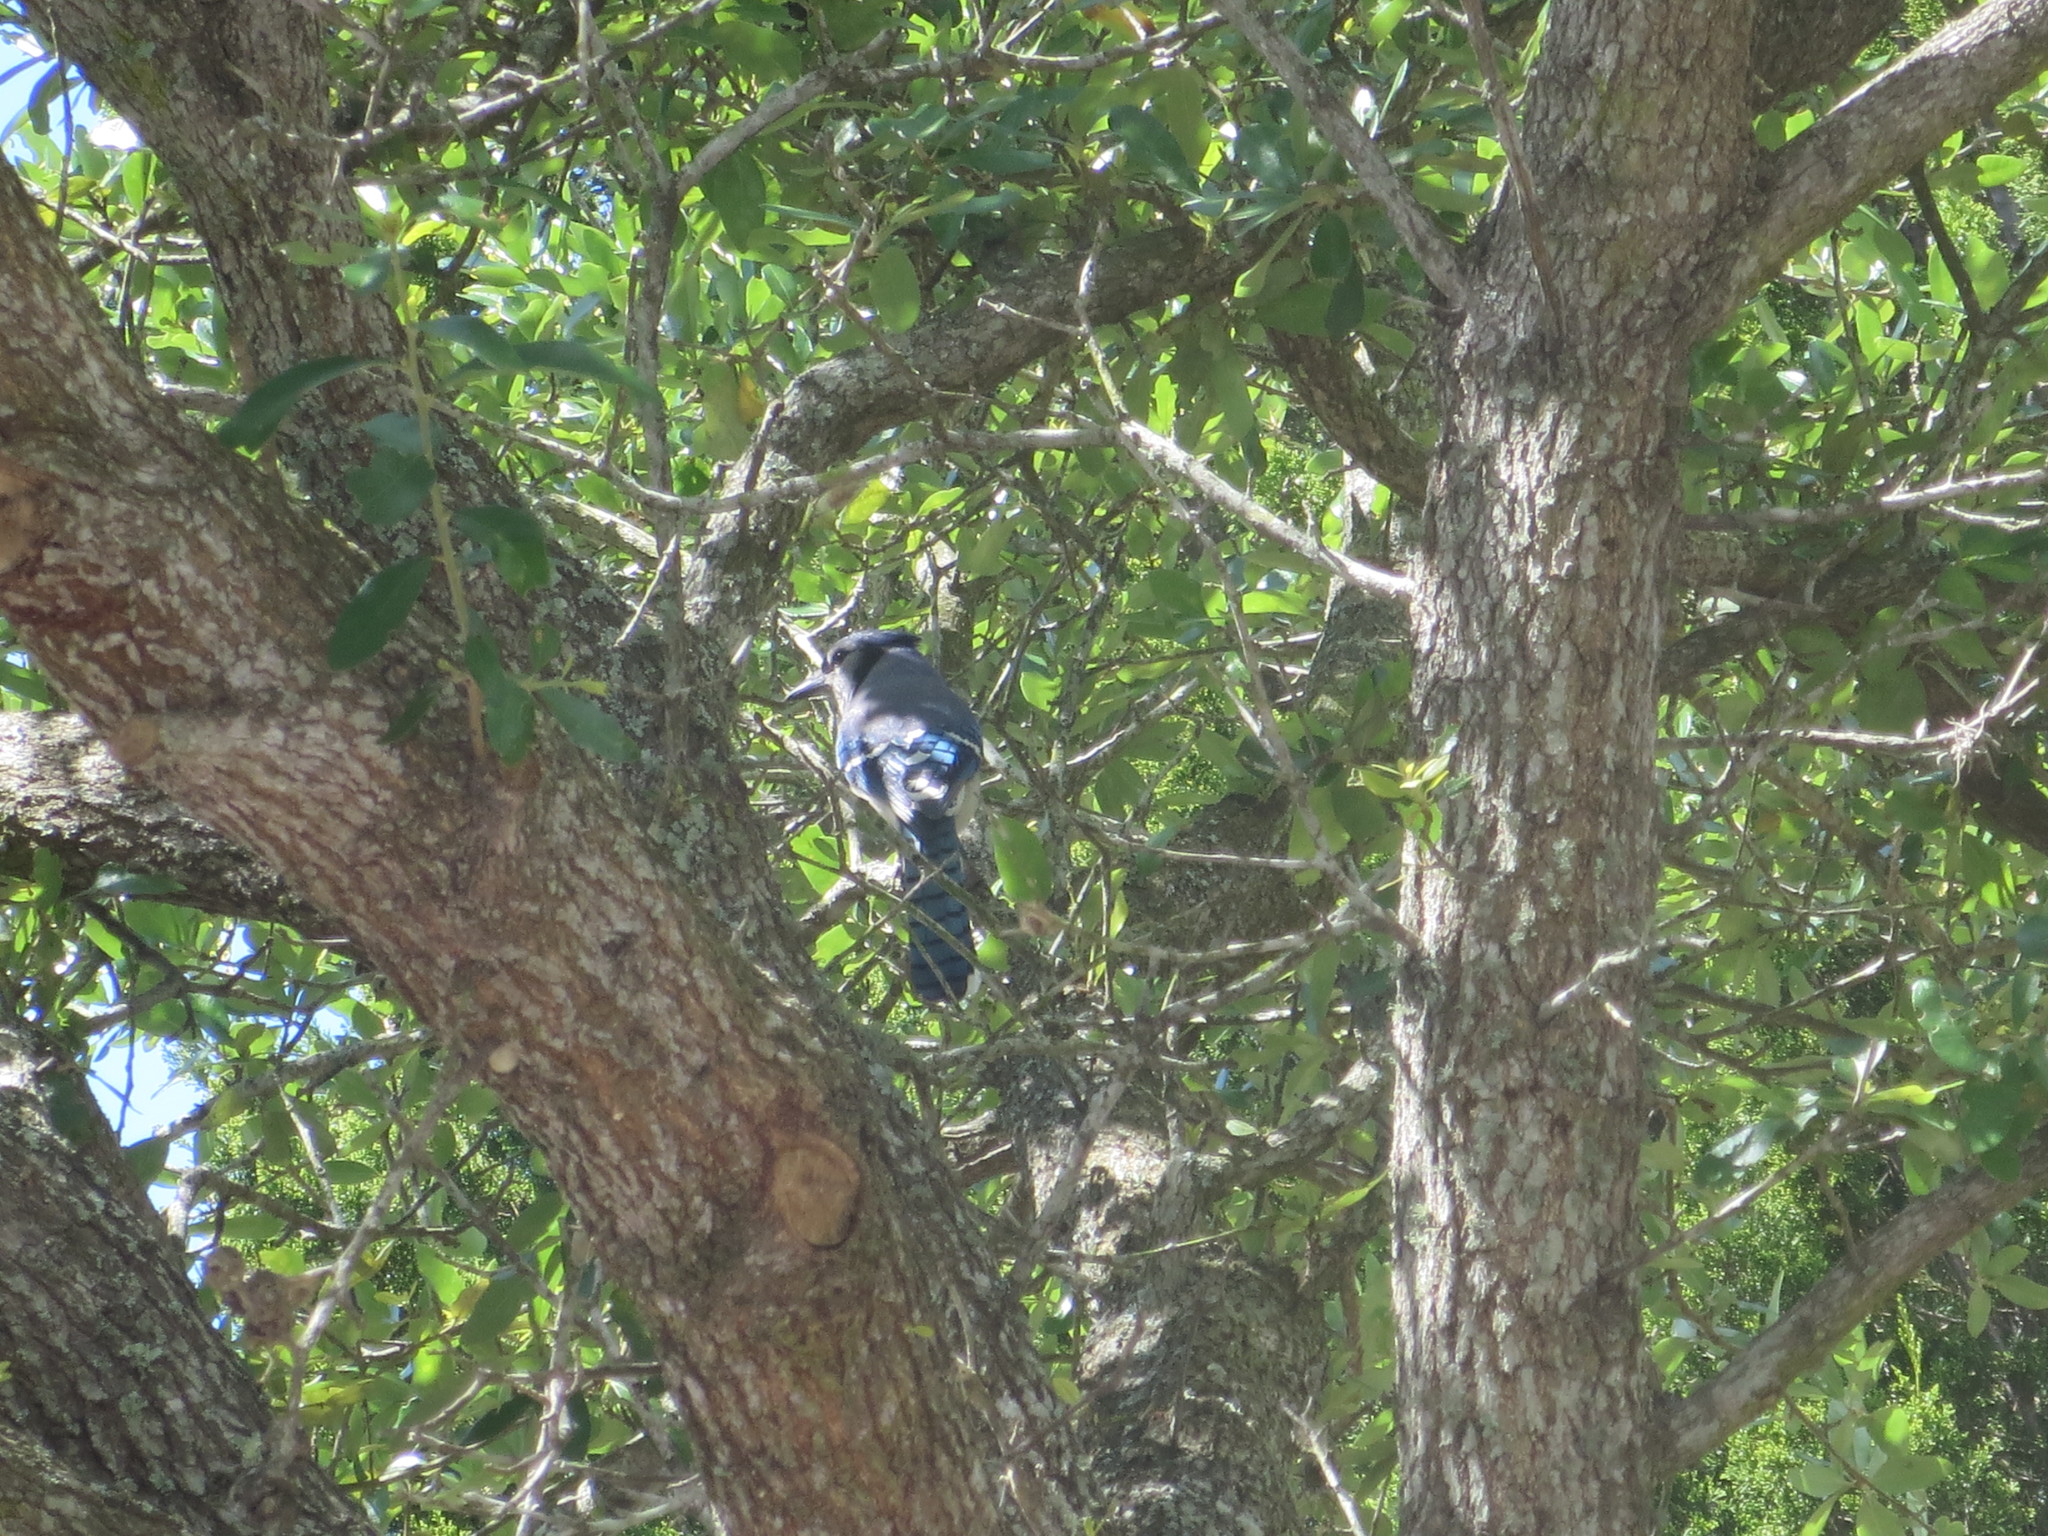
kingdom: Animalia
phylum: Chordata
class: Aves
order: Passeriformes
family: Corvidae
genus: Cyanocitta
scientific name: Cyanocitta cristata
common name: Blue jay
